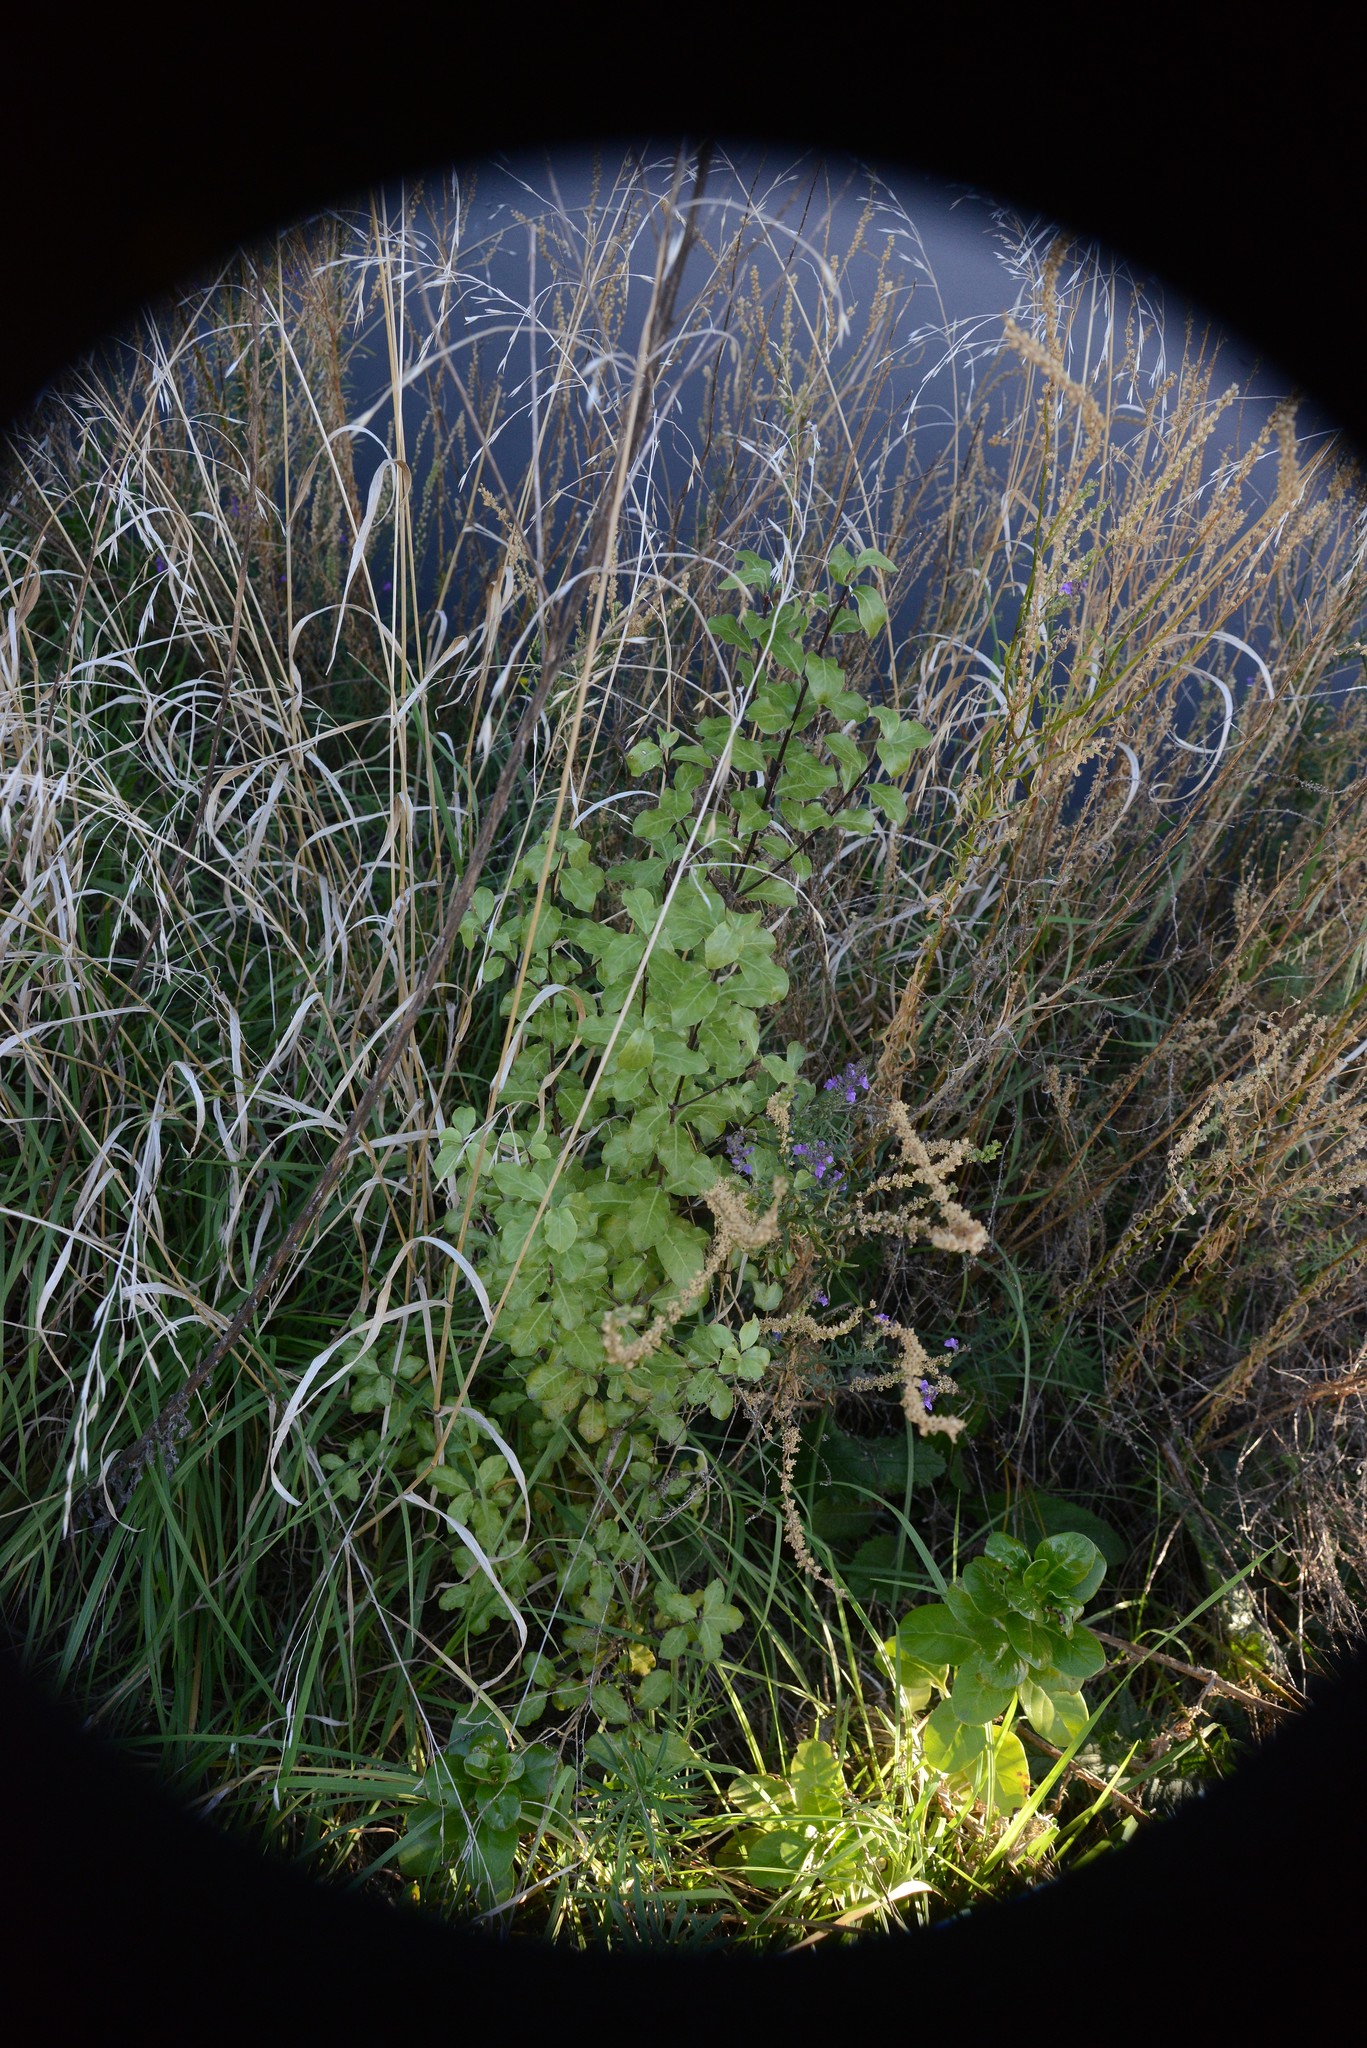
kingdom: Plantae
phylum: Tracheophyta
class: Magnoliopsida
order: Apiales
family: Pittosporaceae
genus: Pittosporum
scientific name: Pittosporum tenuifolium
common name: Kohuhu
